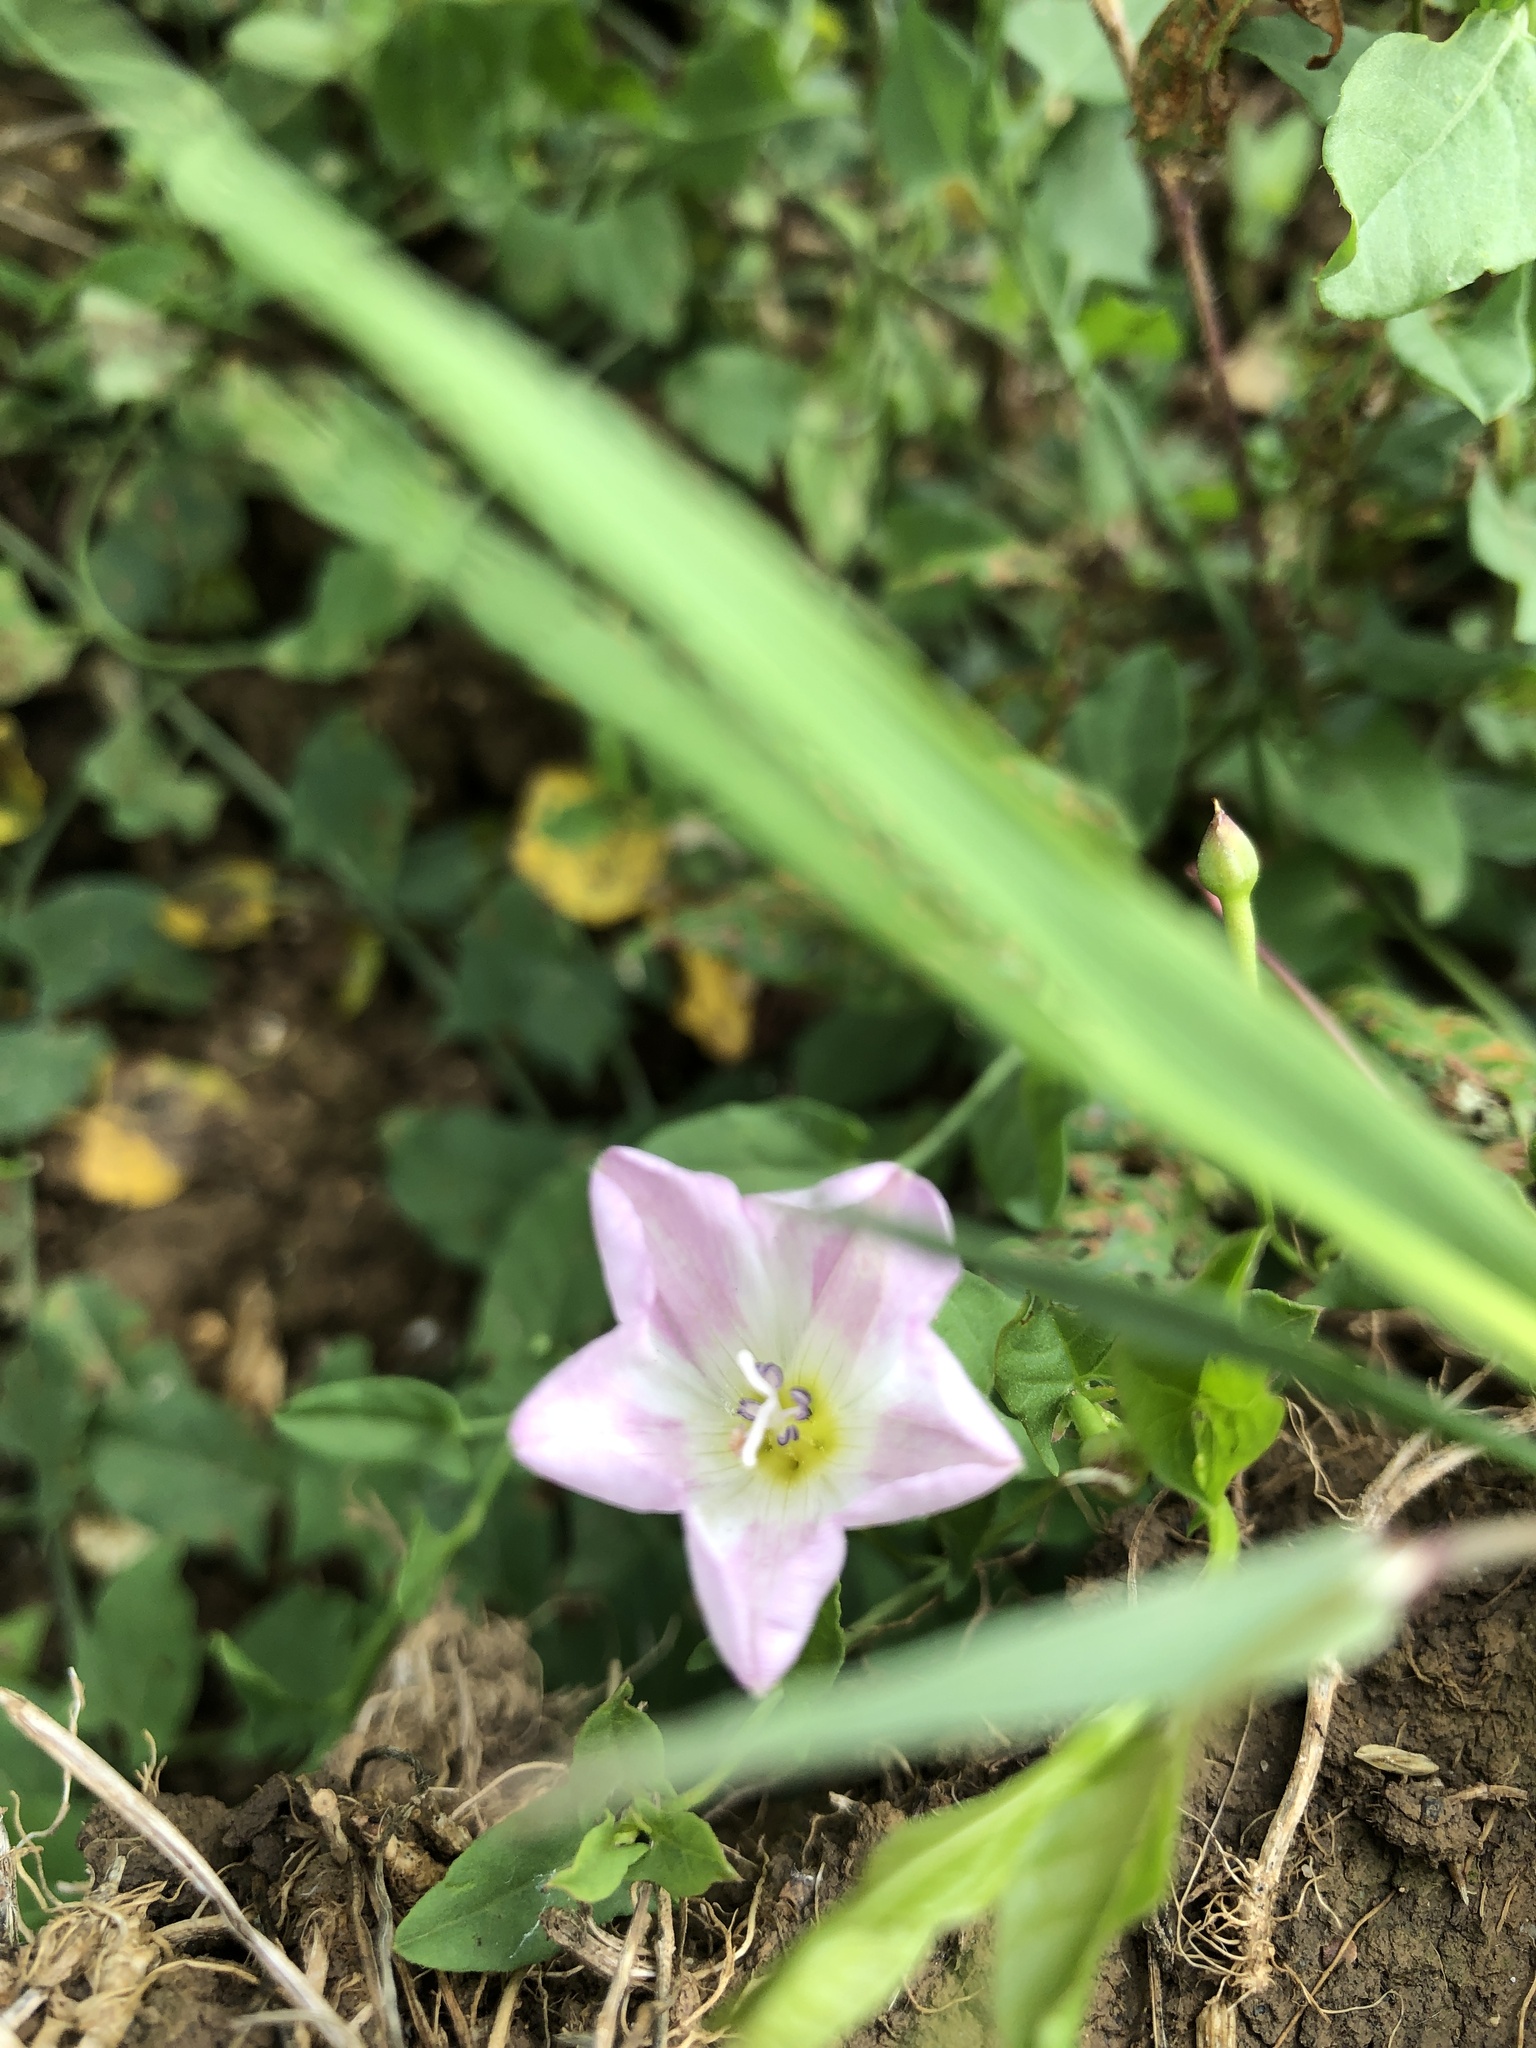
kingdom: Plantae
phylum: Tracheophyta
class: Magnoliopsida
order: Solanales
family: Convolvulaceae
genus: Convolvulus
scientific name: Convolvulus arvensis
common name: Field bindweed
